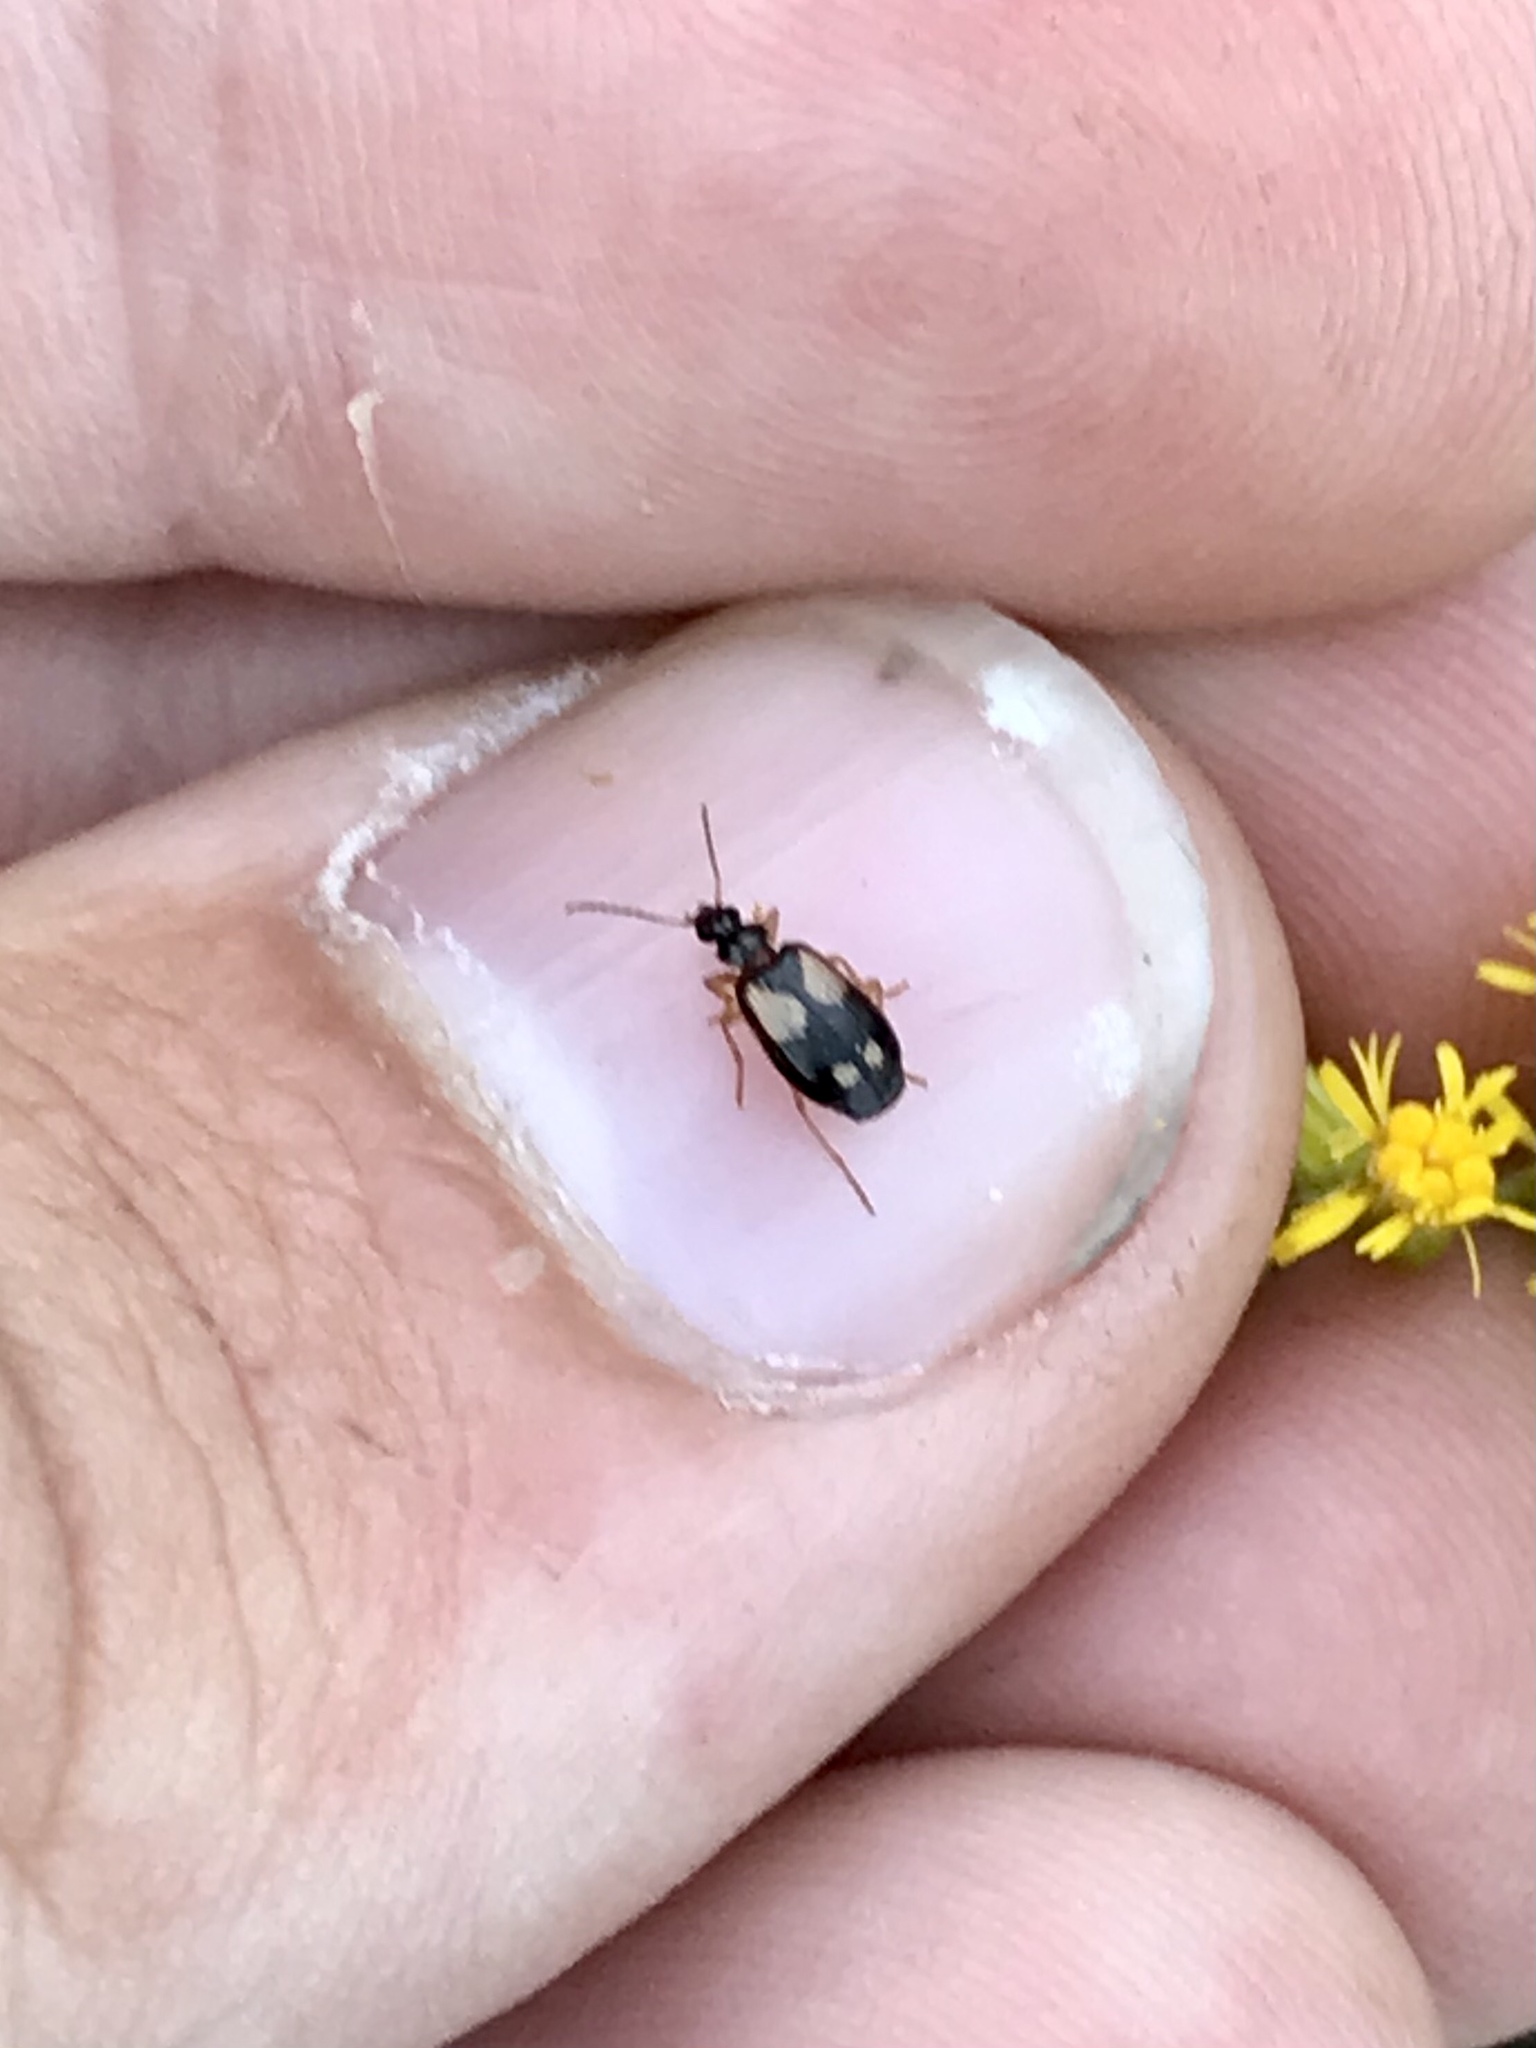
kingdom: Animalia
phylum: Arthropoda
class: Insecta
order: Coleoptera
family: Carabidae
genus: Lebia
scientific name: Lebia ornata
